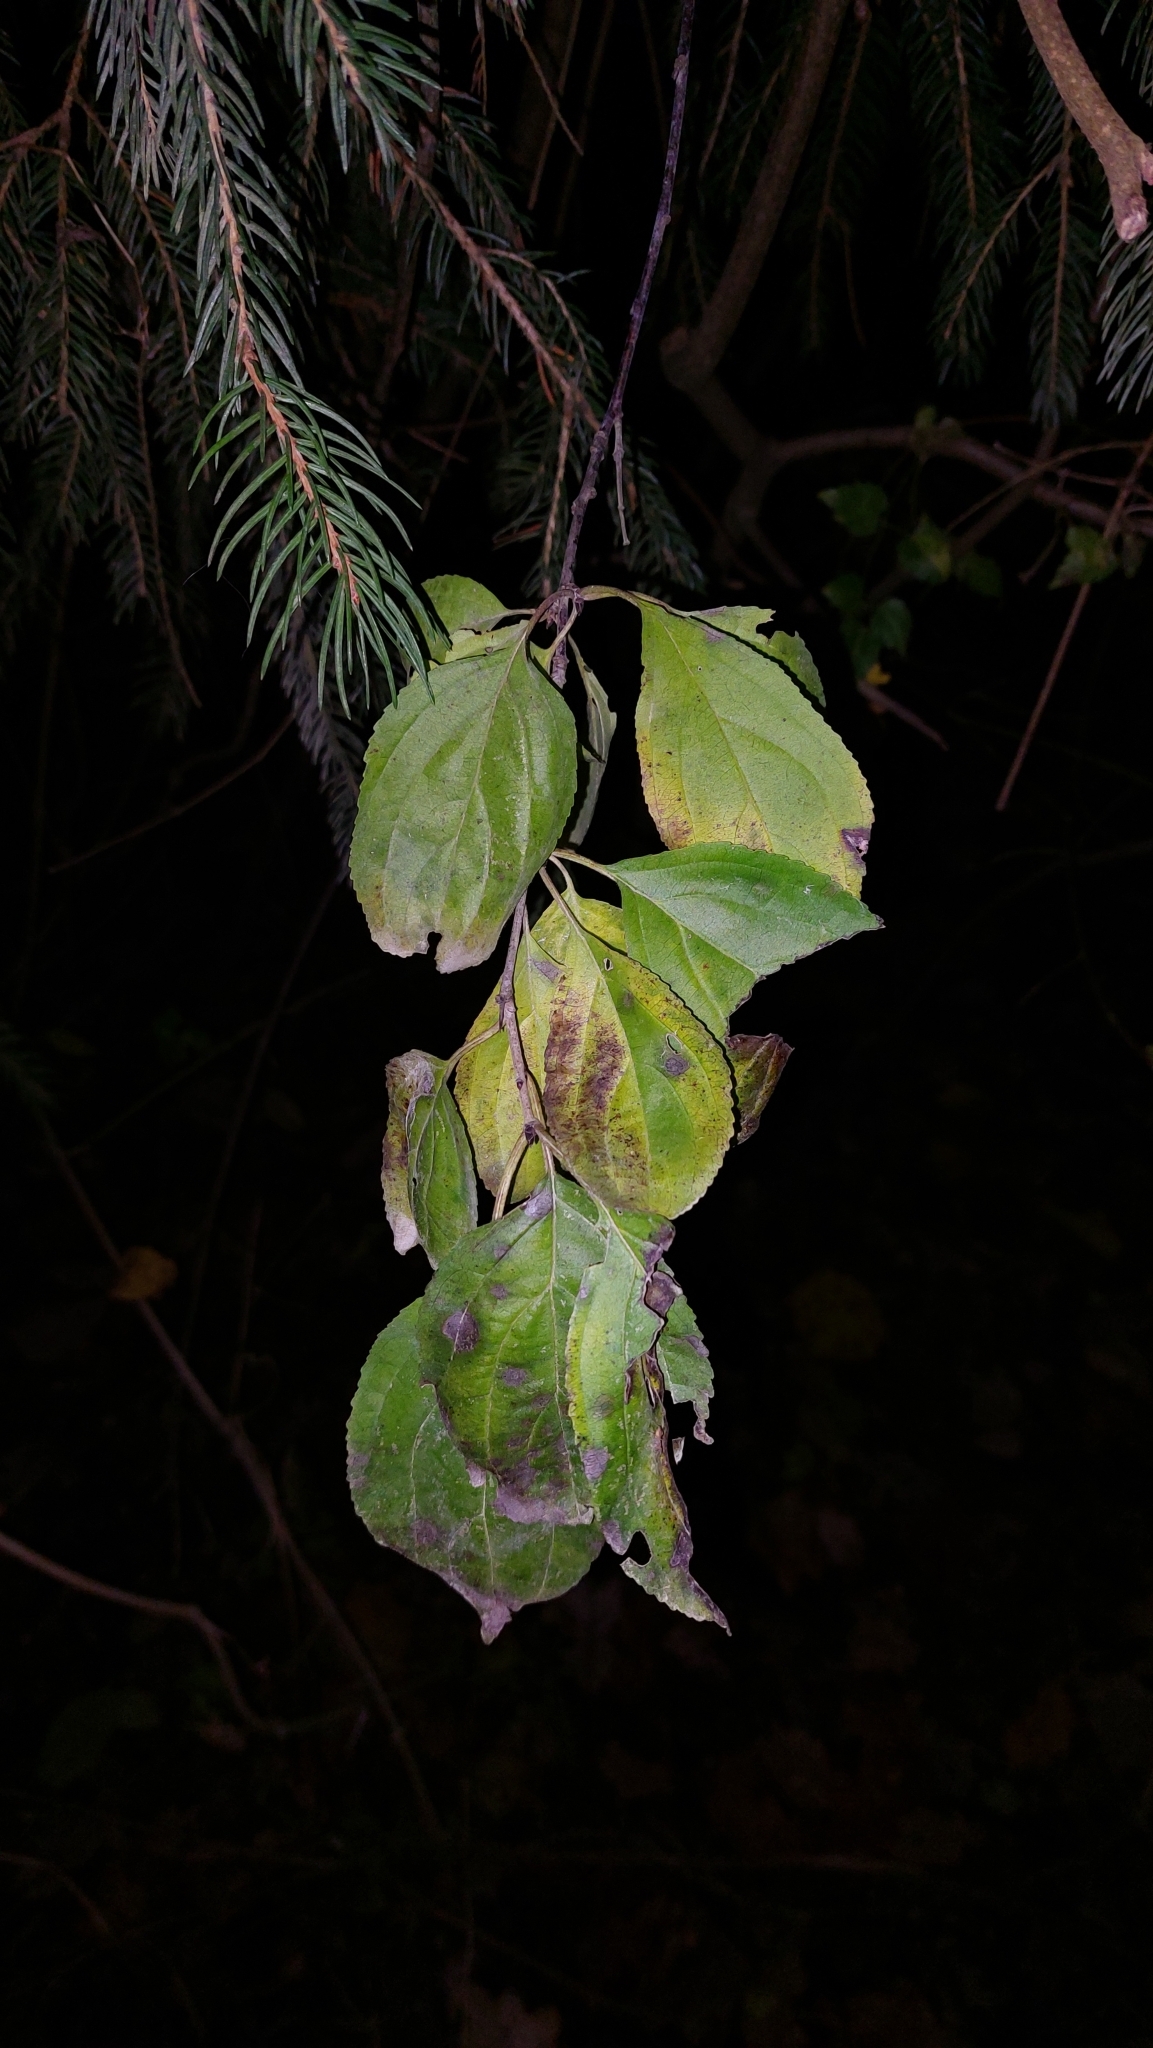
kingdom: Plantae
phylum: Tracheophyta
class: Magnoliopsida
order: Rosales
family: Rhamnaceae
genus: Rhamnus
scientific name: Rhamnus cathartica
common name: Common buckthorn
